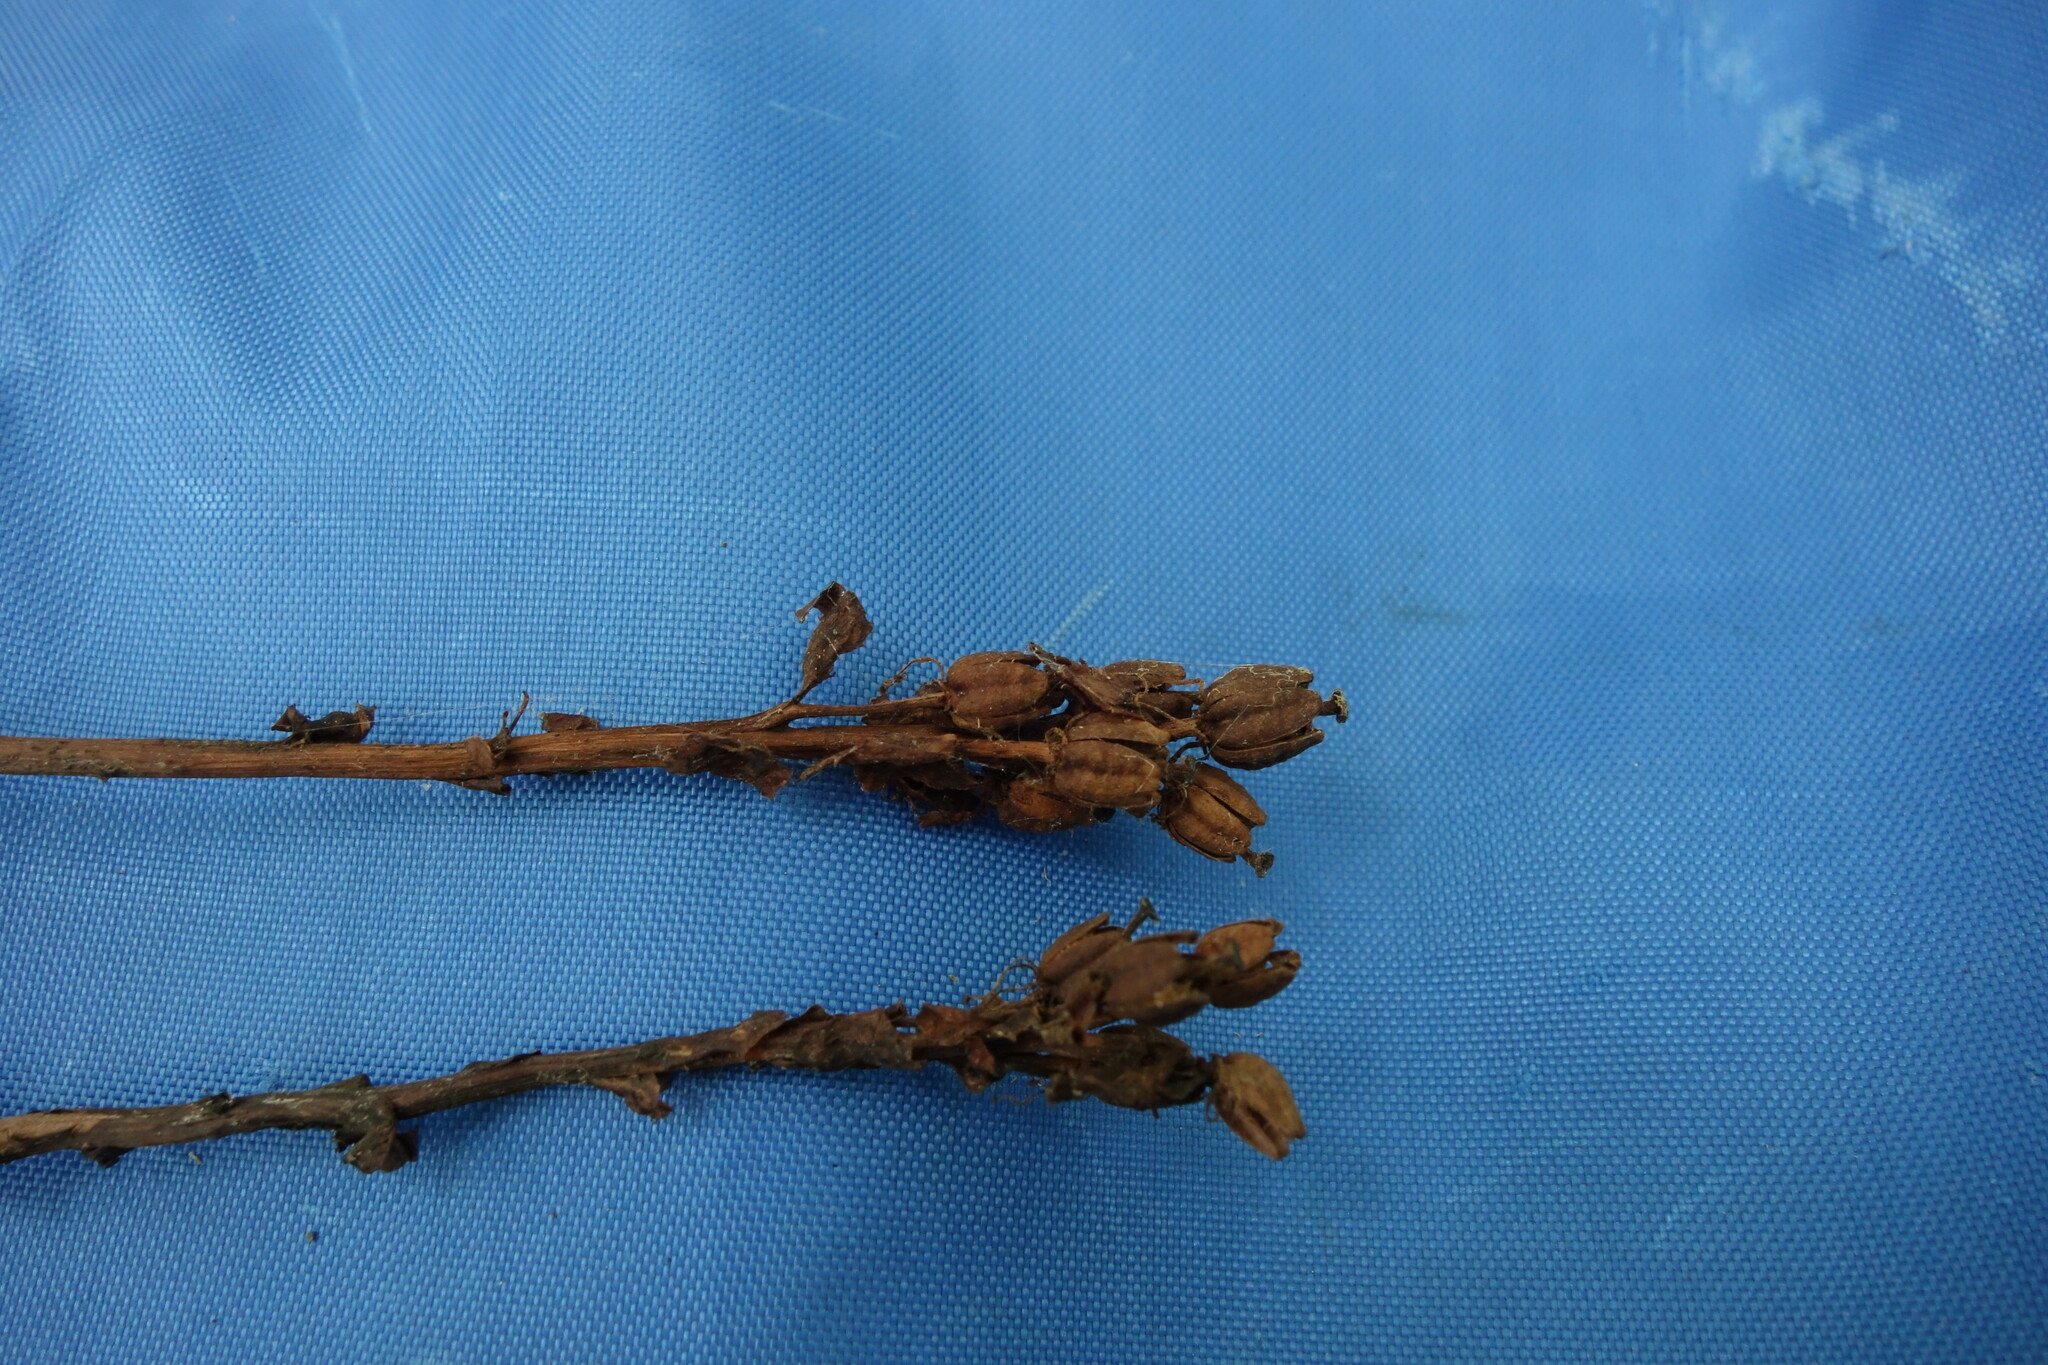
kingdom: Plantae
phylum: Tracheophyta
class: Magnoliopsida
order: Ericales
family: Ericaceae
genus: Hypopitys
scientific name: Hypopitys monotropa
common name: Yellow bird's-nest
